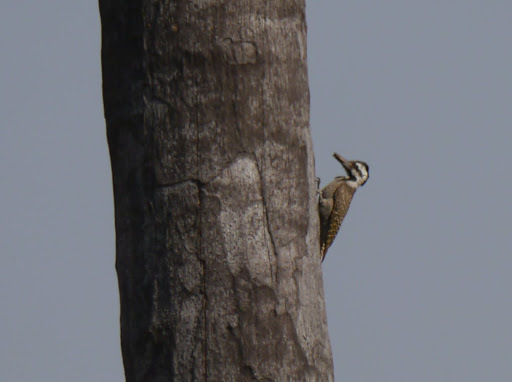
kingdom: Animalia
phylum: Chordata
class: Aves
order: Piciformes
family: Picidae
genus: Chloropicus
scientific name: Chloropicus namaquus
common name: Bearded woodpecker
